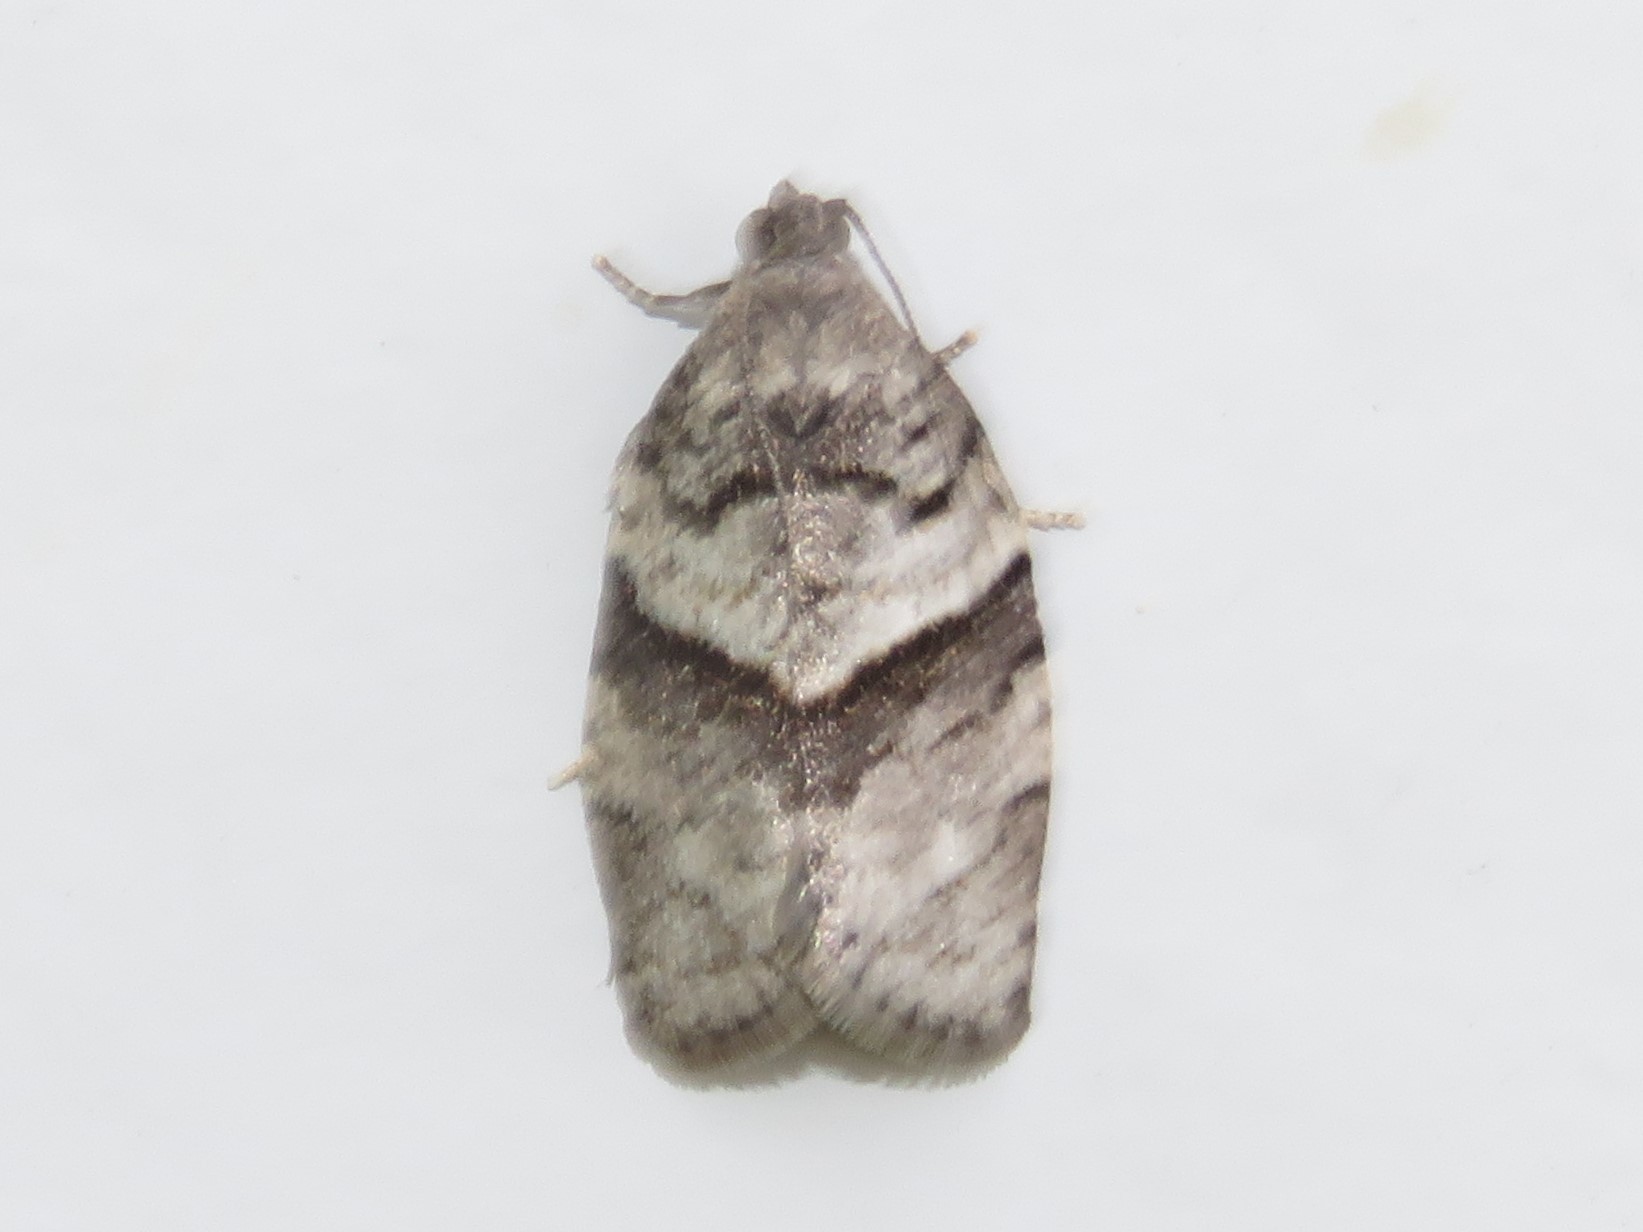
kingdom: Animalia
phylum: Arthropoda
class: Insecta
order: Lepidoptera
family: Tortricidae
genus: Syndemis
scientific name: Syndemis afflictana
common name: Gray leafroller moth
